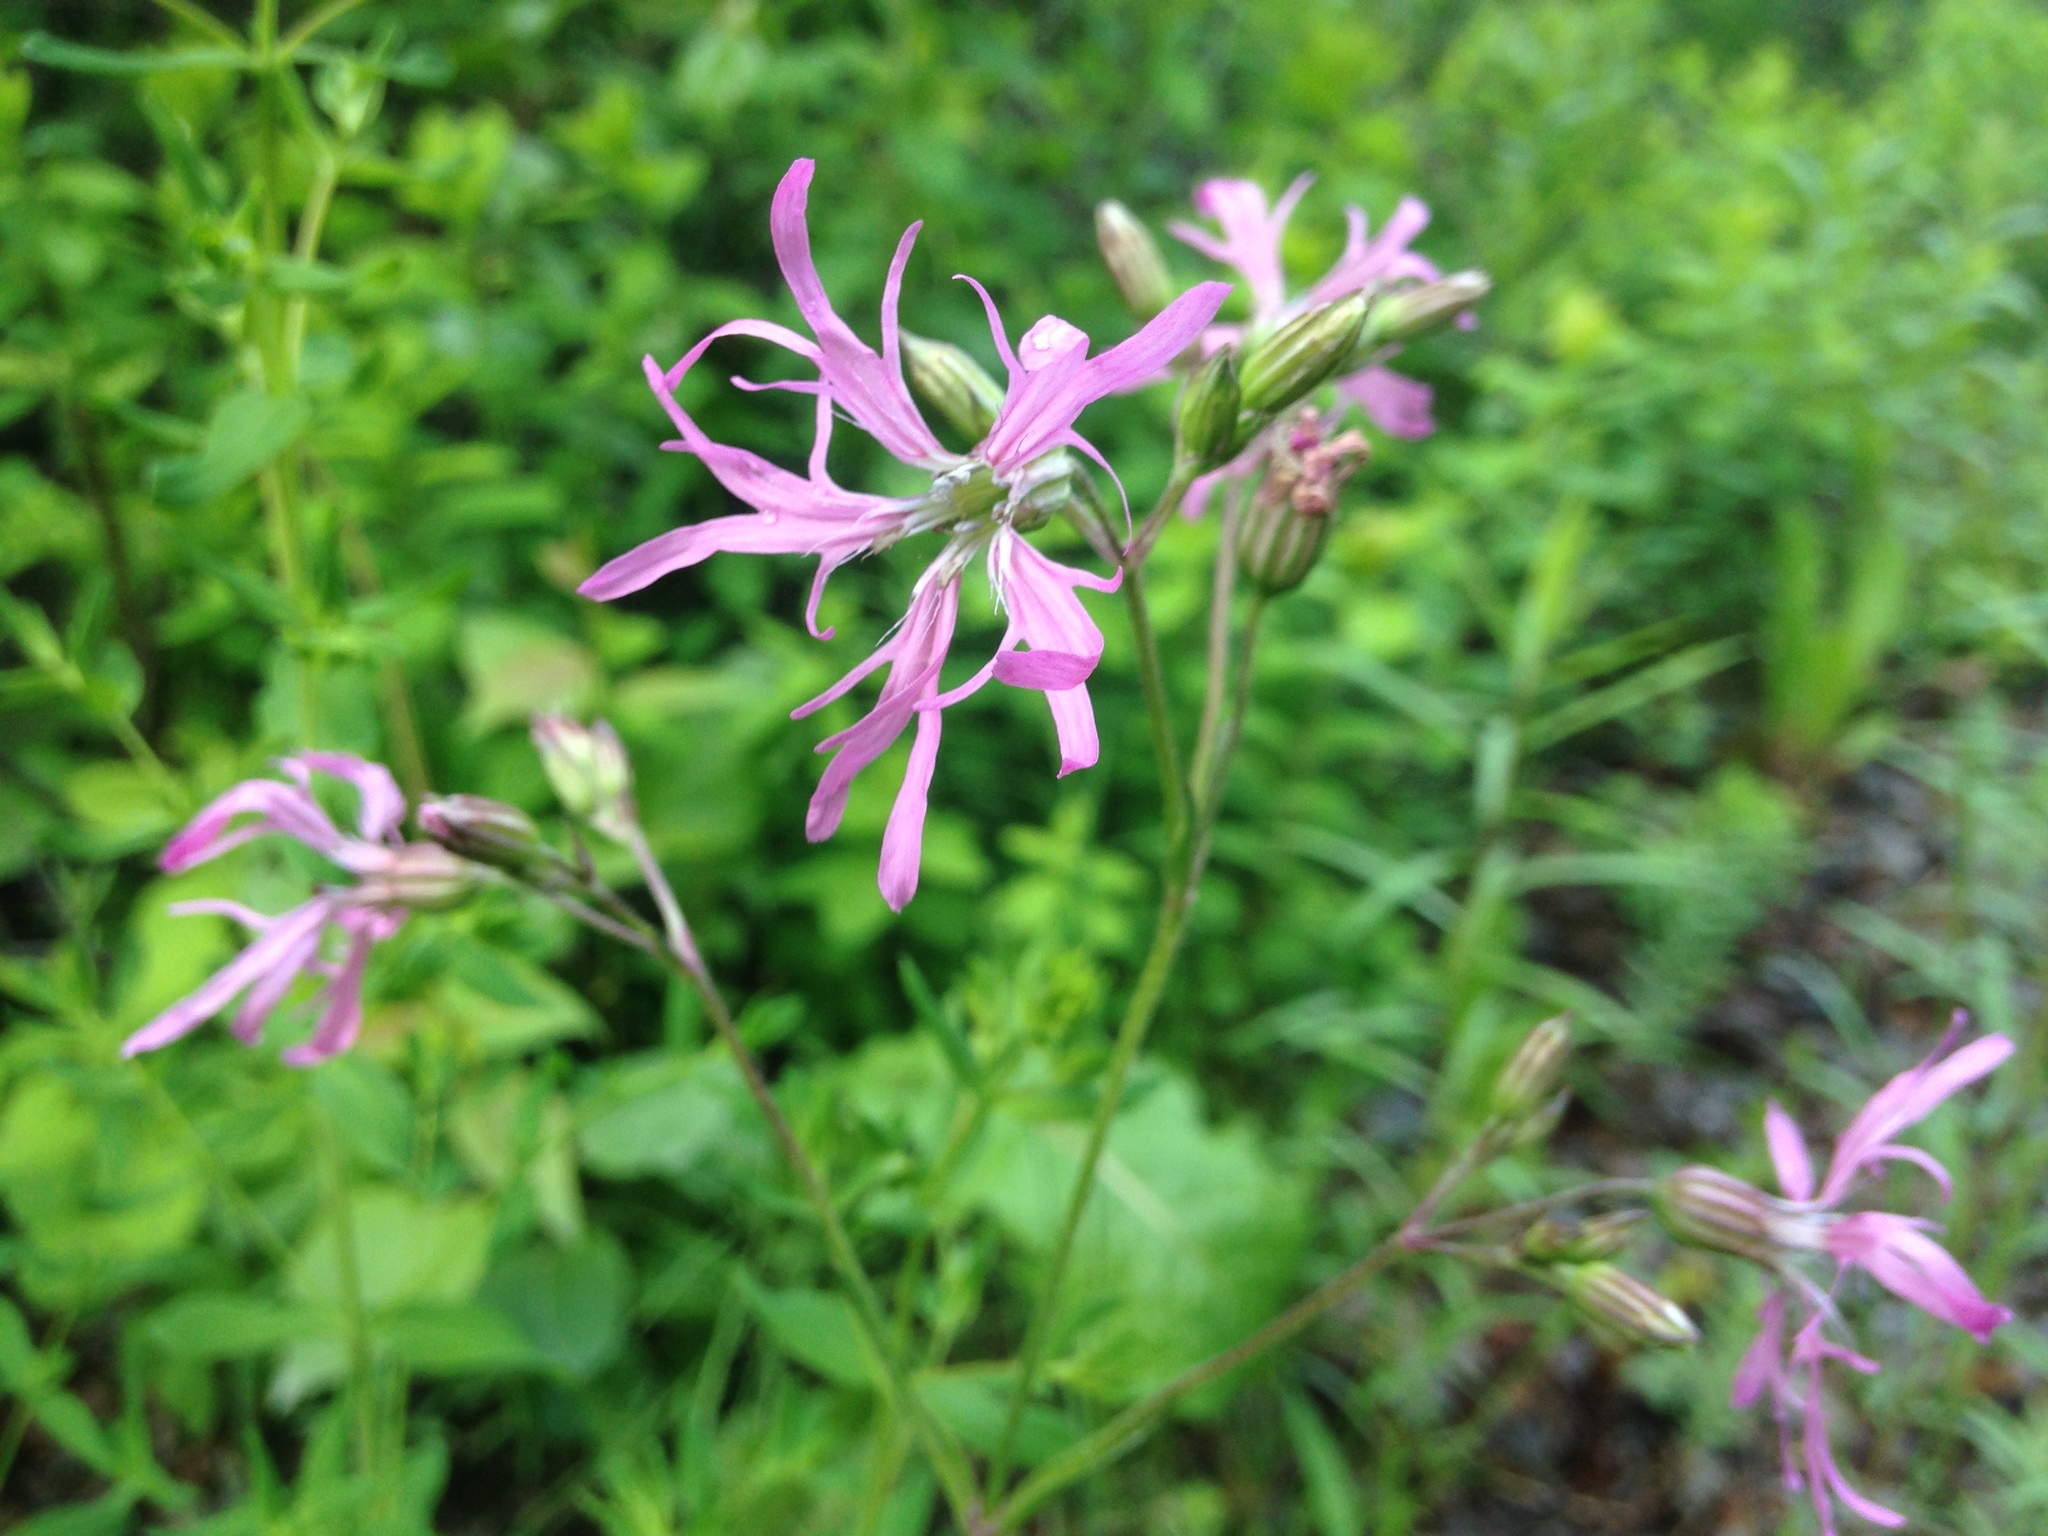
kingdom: Plantae
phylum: Tracheophyta
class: Magnoliopsida
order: Caryophyllales
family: Caryophyllaceae
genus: Silene
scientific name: Silene flos-cuculi
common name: Ragged-robin
